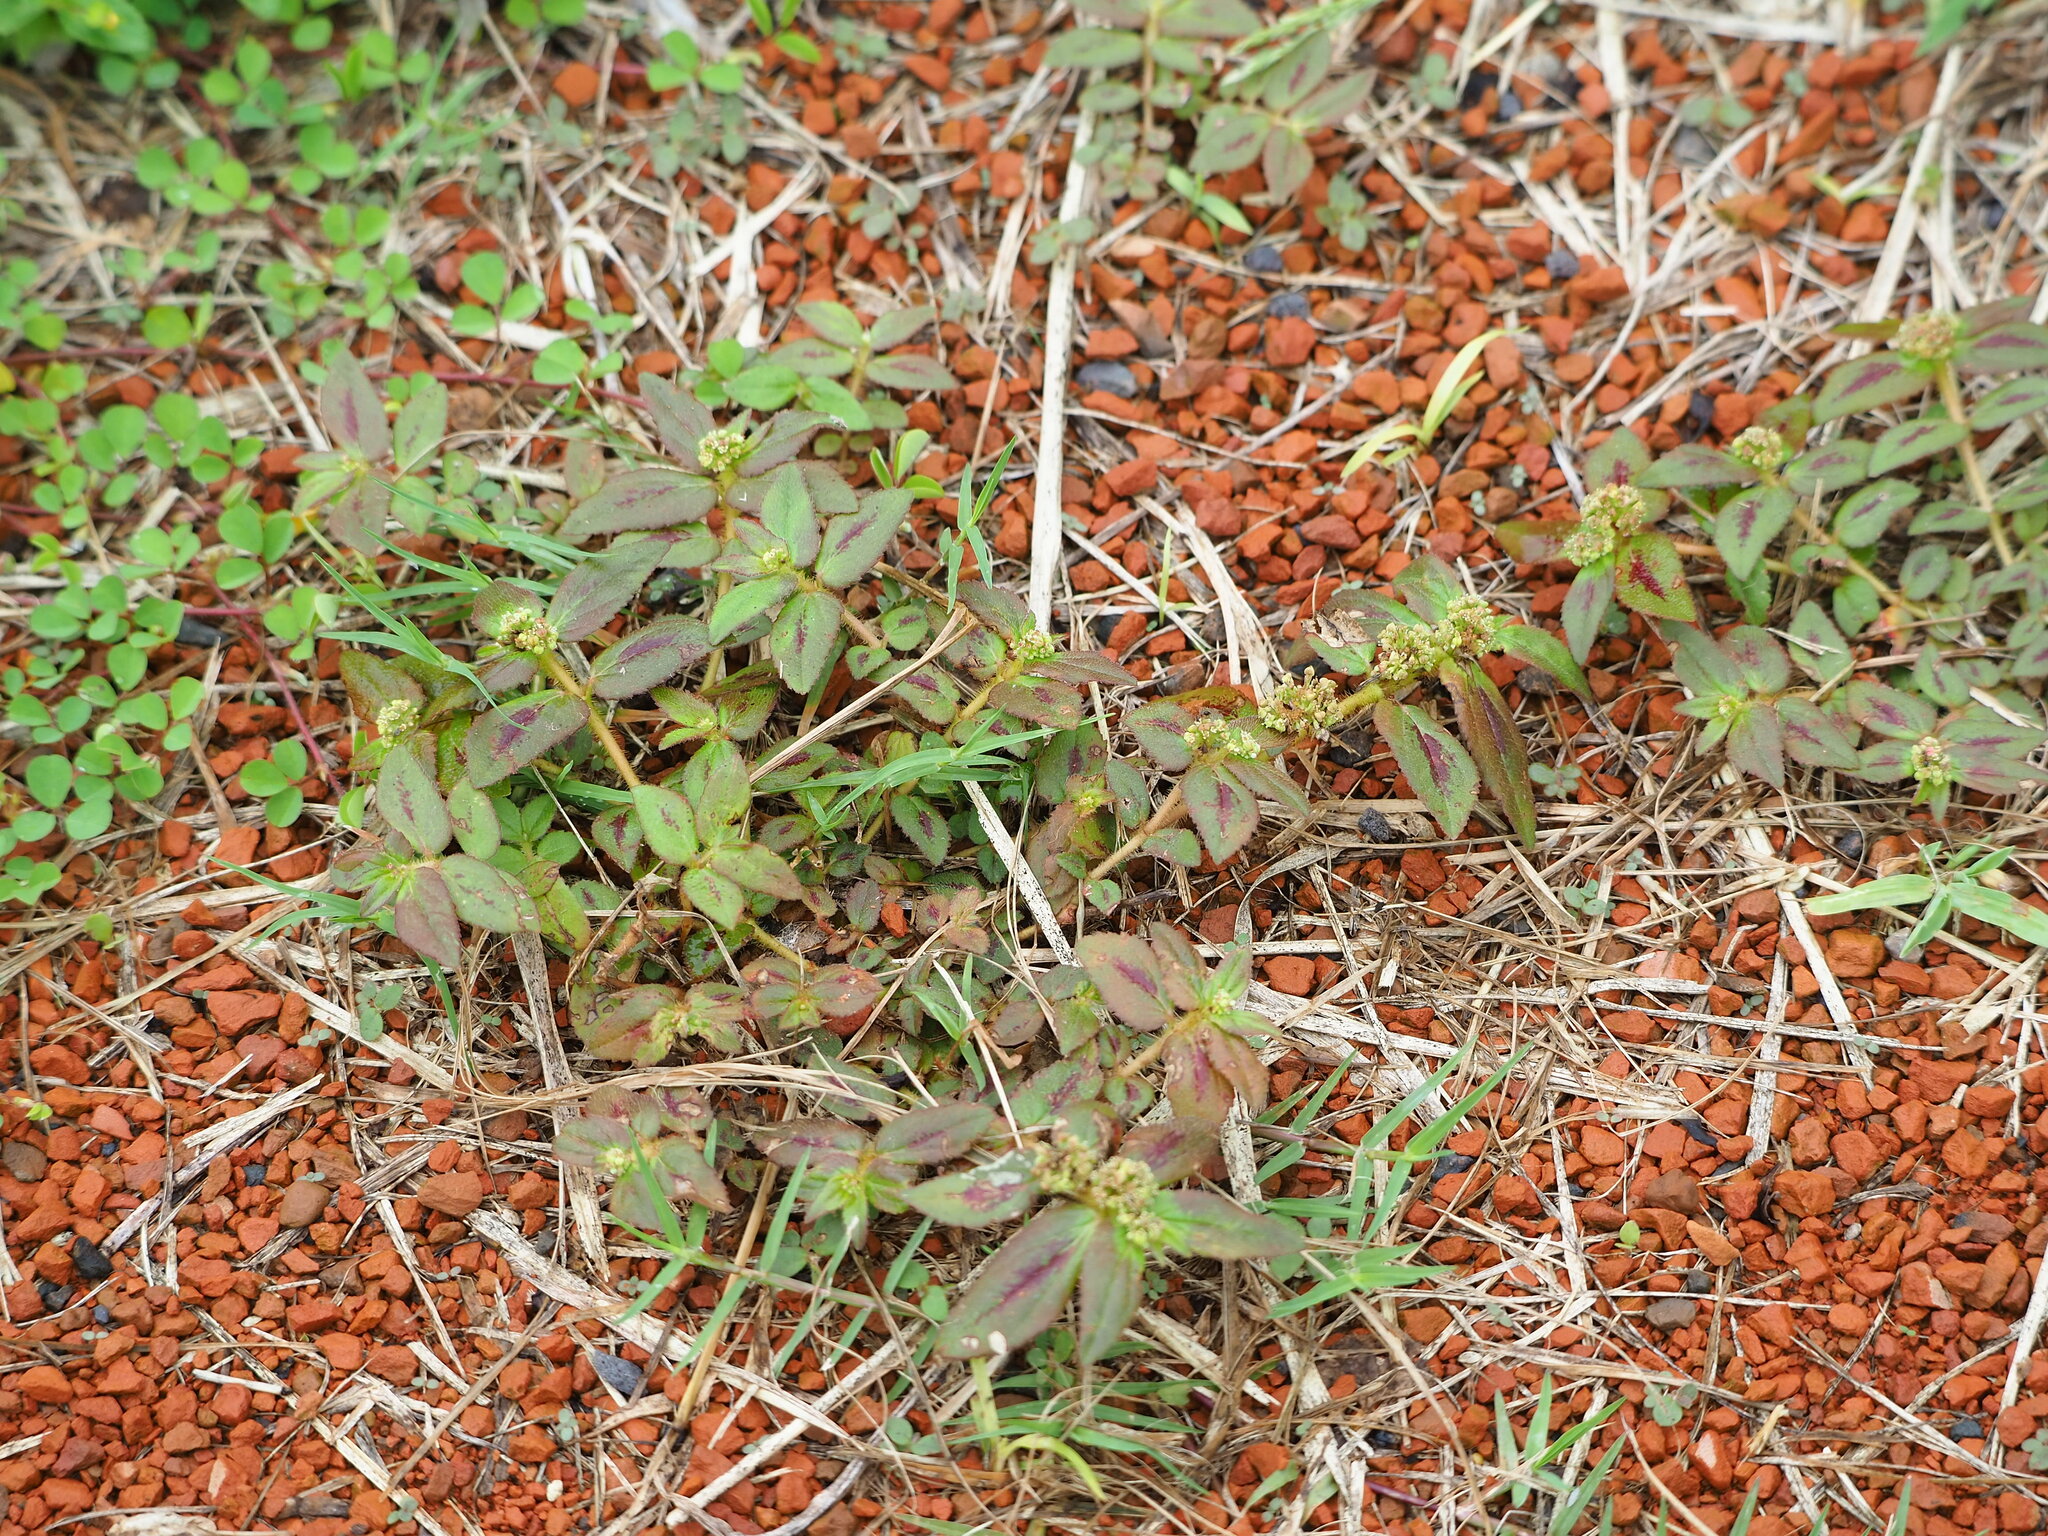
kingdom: Plantae
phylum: Tracheophyta
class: Magnoliopsida
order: Malpighiales
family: Euphorbiaceae
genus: Euphorbia
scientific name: Euphorbia hirta
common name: Pillpod sandmat
